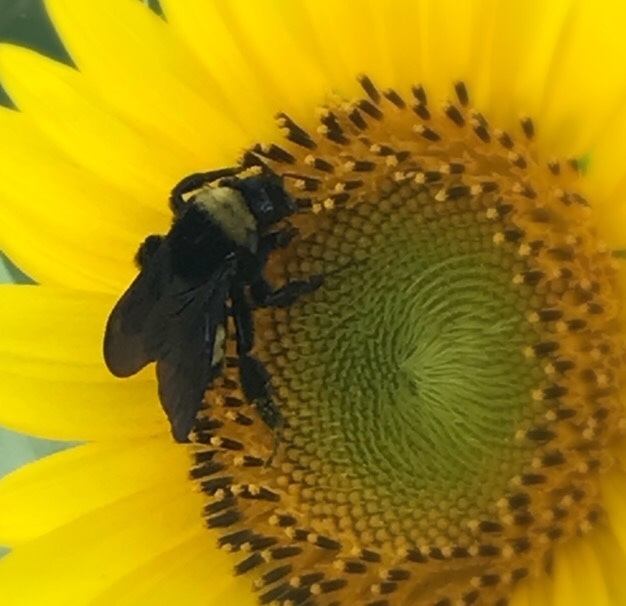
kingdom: Animalia
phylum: Arthropoda
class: Insecta
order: Hymenoptera
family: Apidae
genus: Bombus
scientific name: Bombus pensylvanicus
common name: Bumble bee
